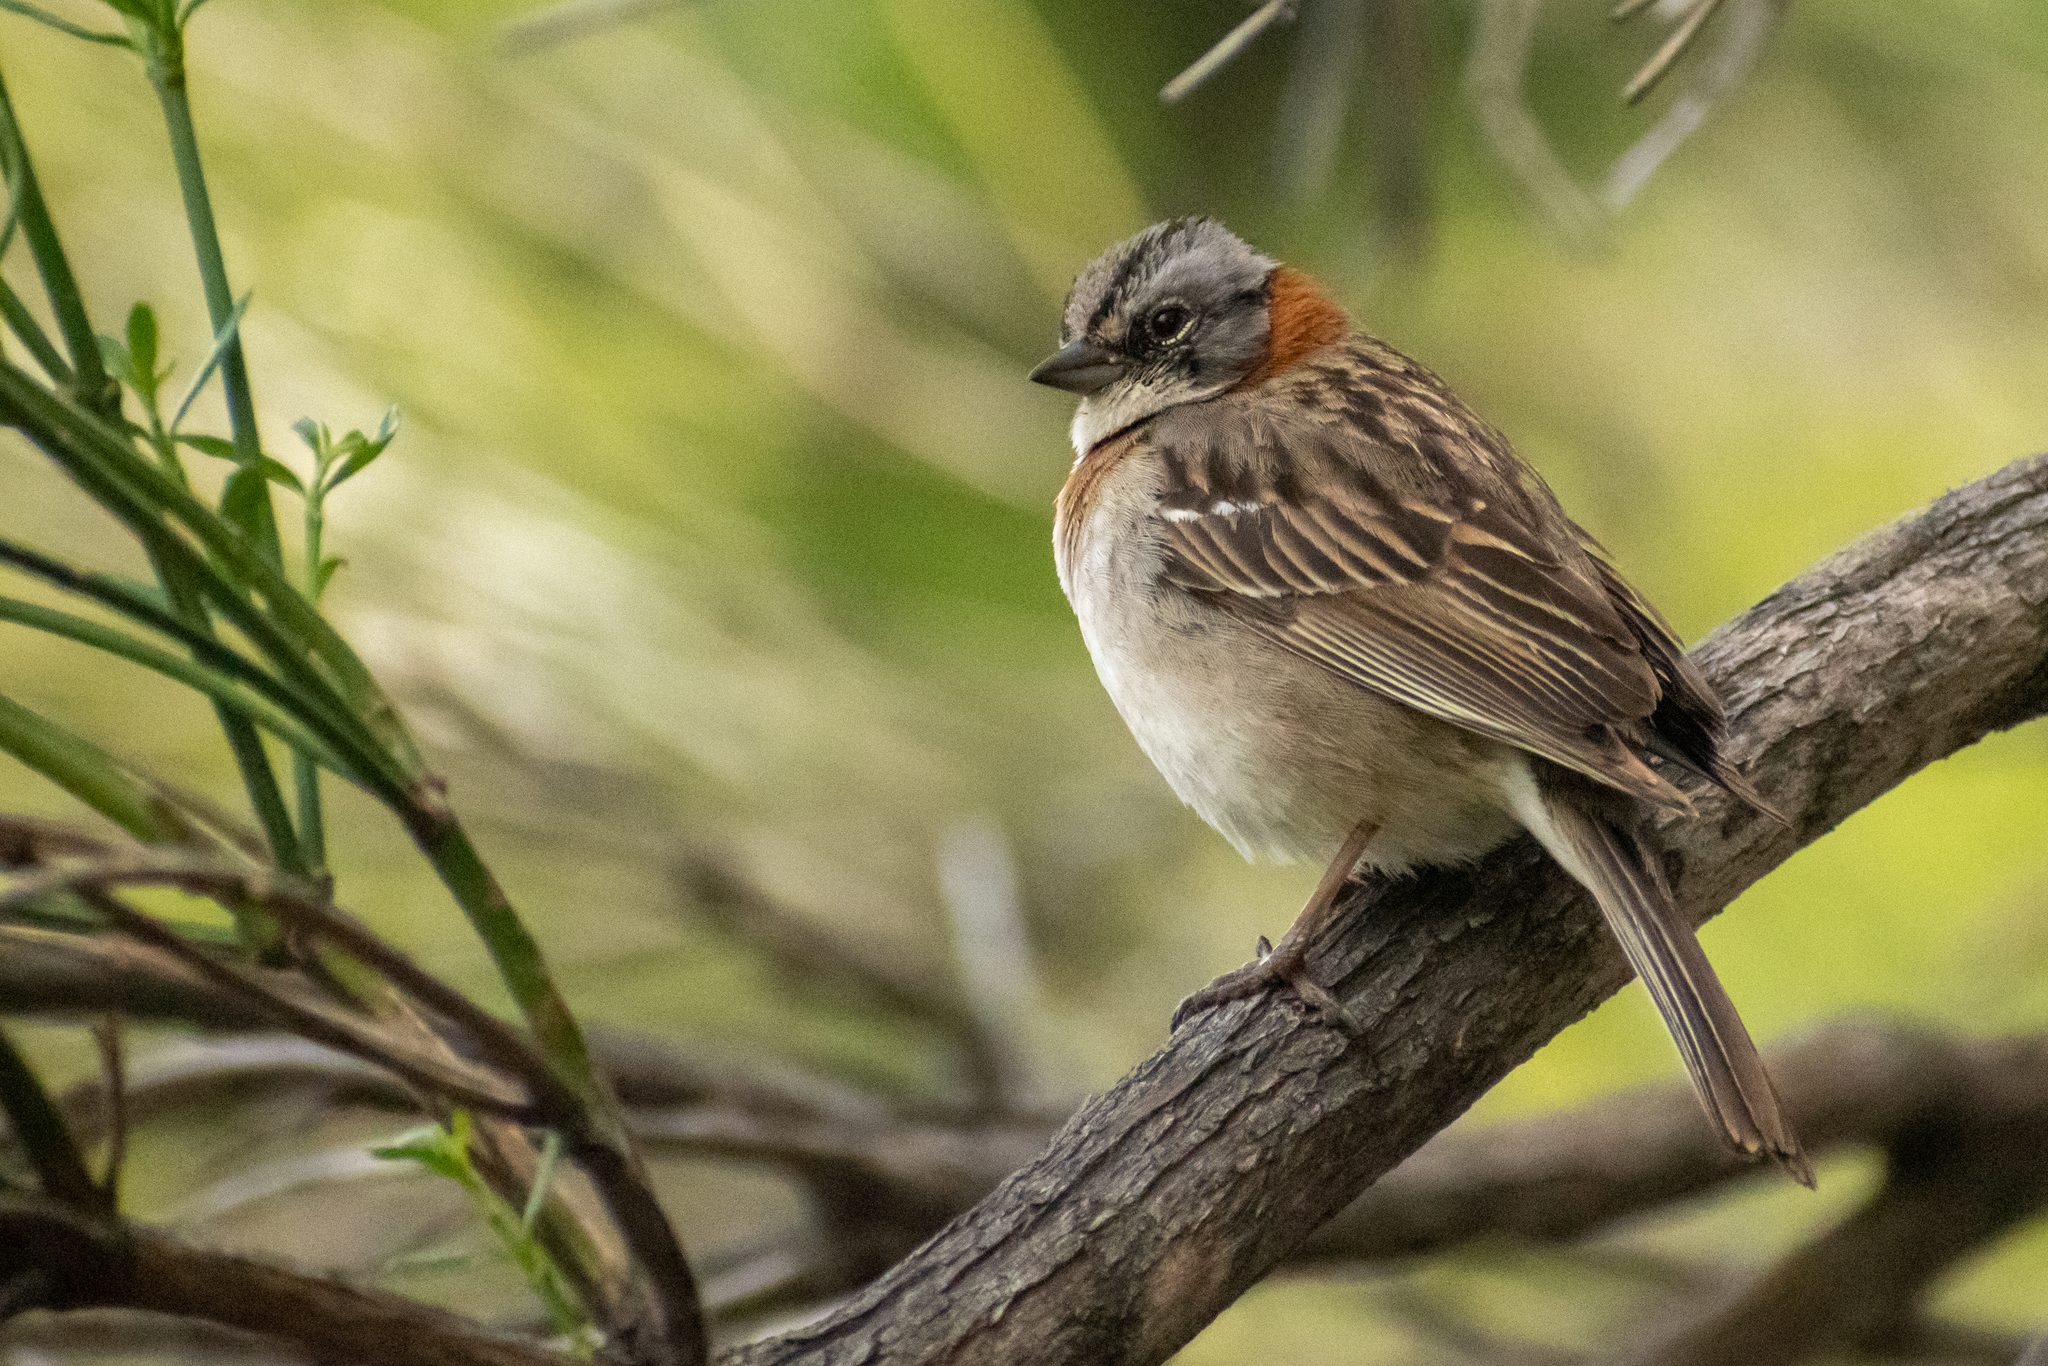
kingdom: Animalia
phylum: Chordata
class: Aves
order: Passeriformes
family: Passerellidae
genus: Zonotrichia
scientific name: Zonotrichia capensis
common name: Rufous-collared sparrow
